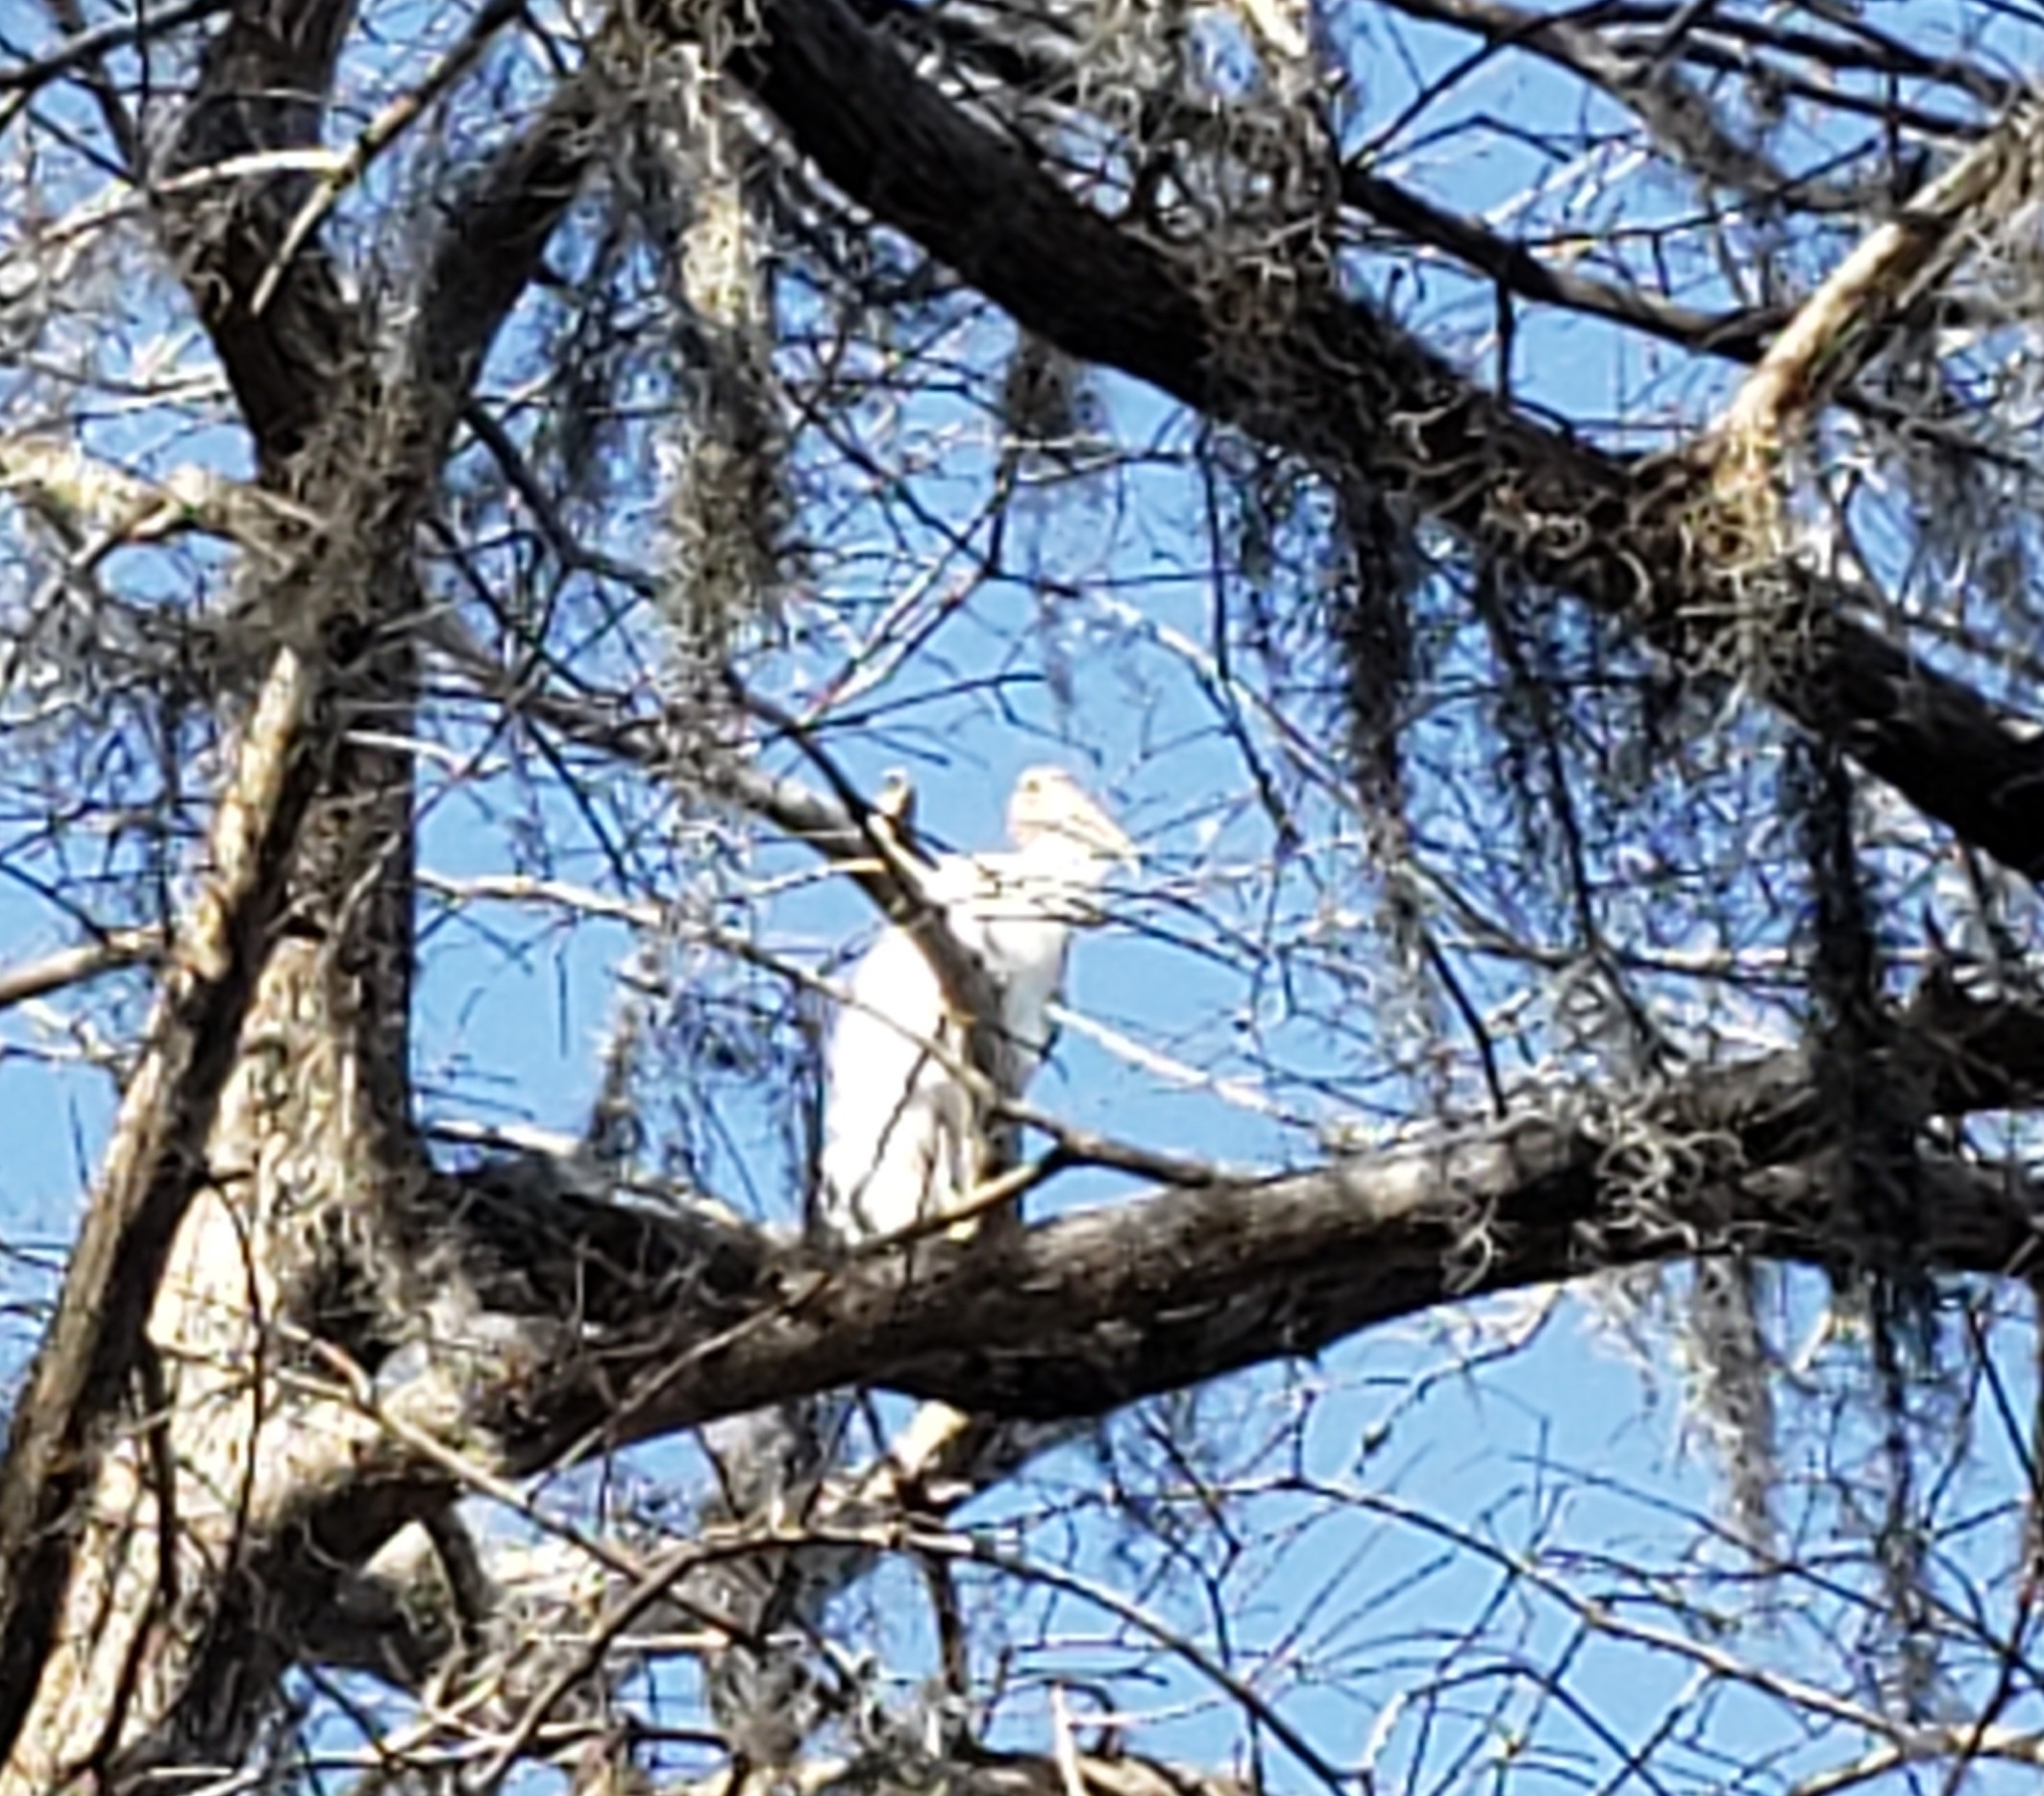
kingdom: Animalia
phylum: Chordata
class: Aves
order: Ciconiiformes
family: Ciconiidae
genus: Mycteria
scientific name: Mycteria americana
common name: Wood stork
